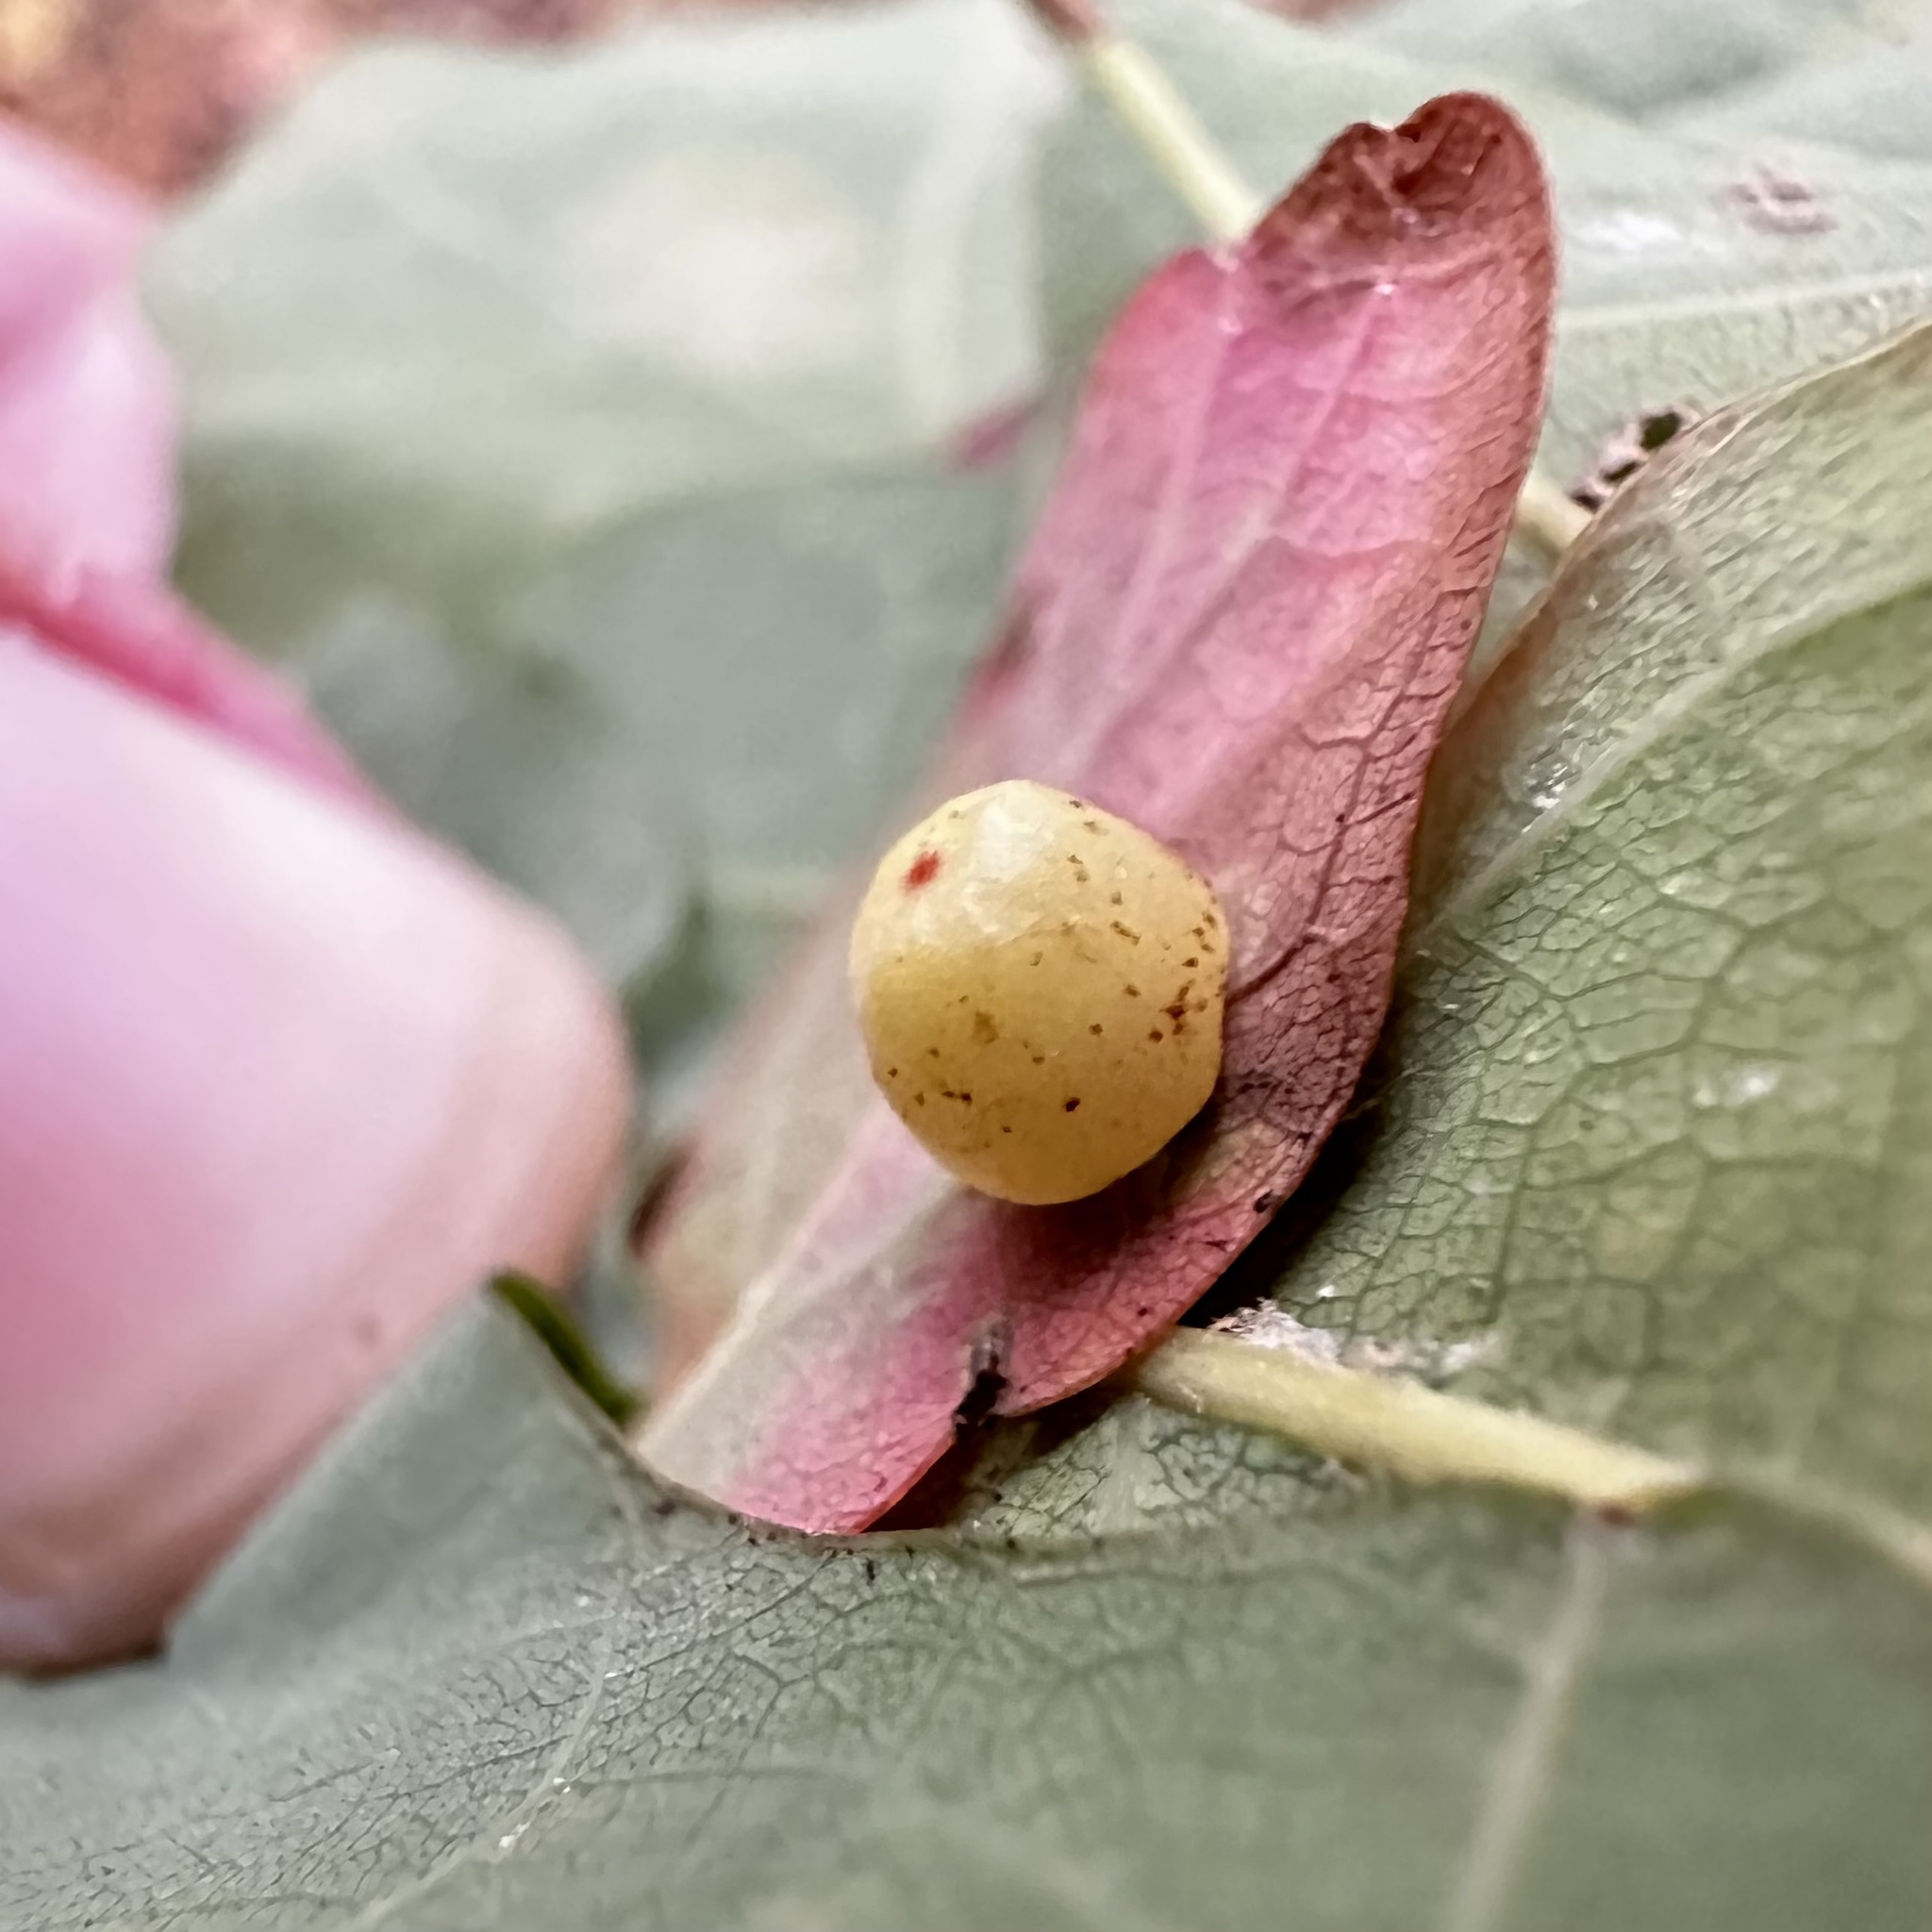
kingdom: Animalia
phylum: Arthropoda
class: Insecta
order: Hymenoptera
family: Cynipidae
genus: Andricus
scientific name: Andricus
